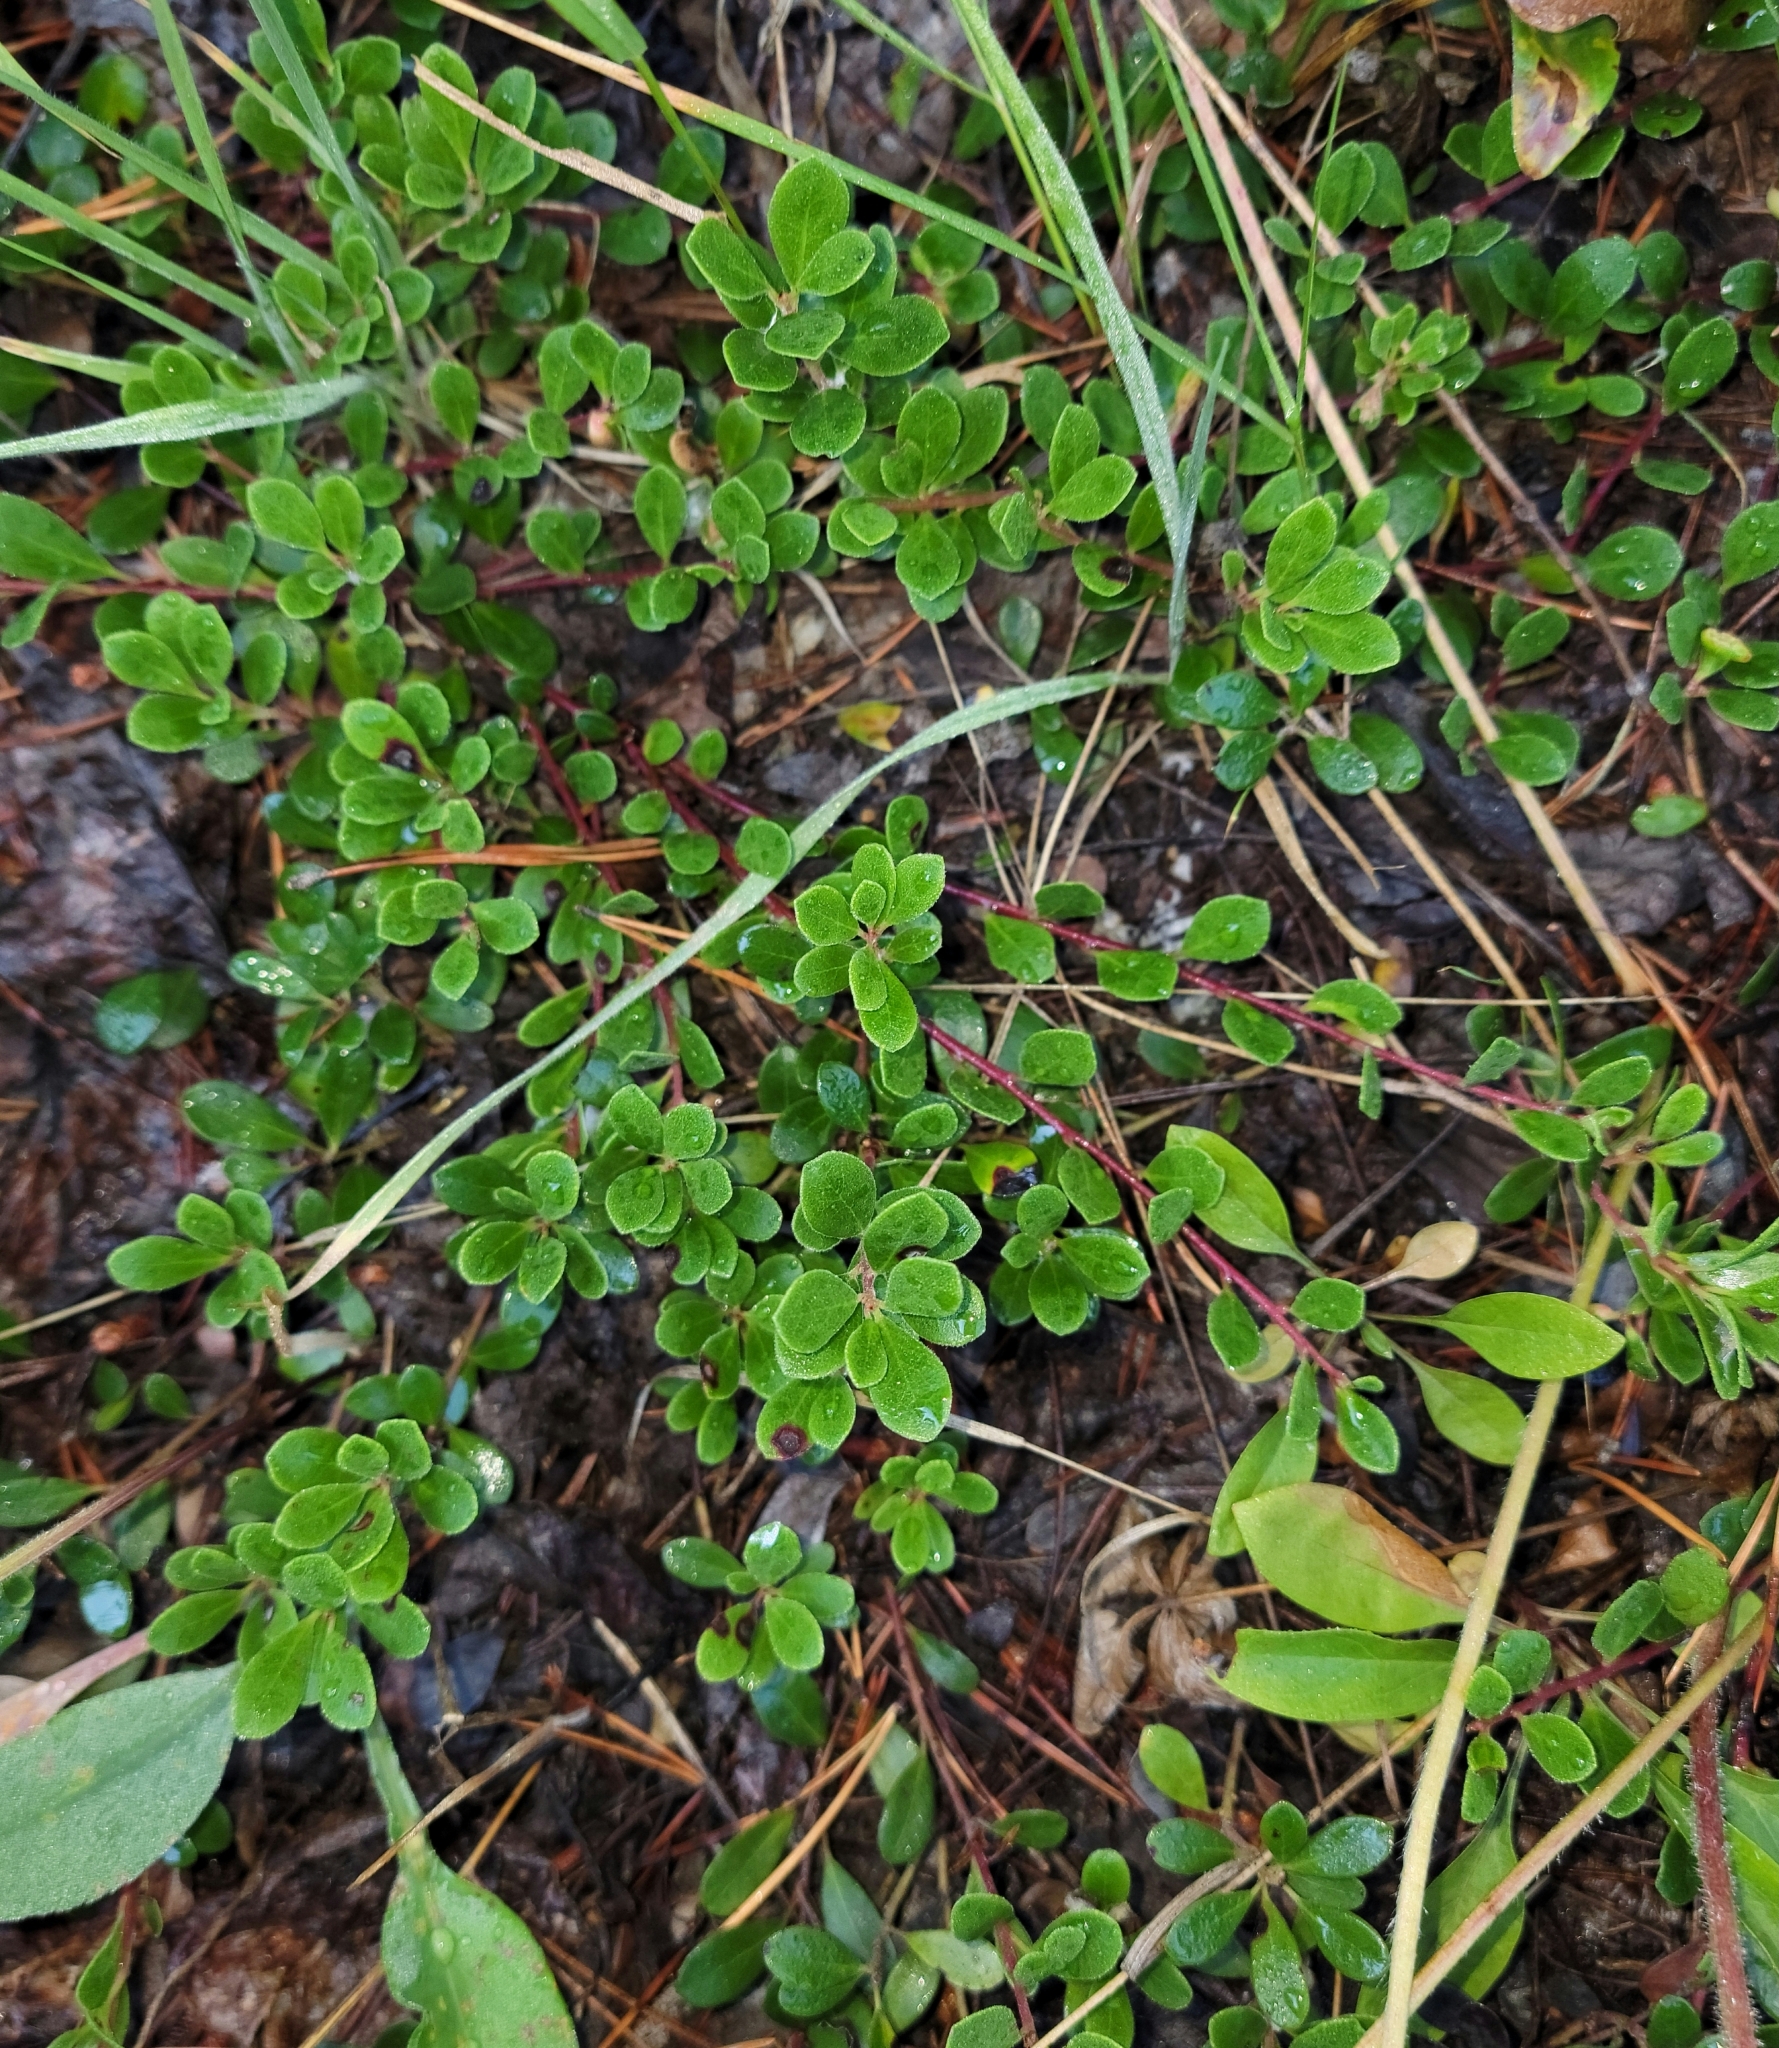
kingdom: Plantae
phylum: Tracheophyta
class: Magnoliopsida
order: Ericales
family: Ericaceae
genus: Arctostaphylos
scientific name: Arctostaphylos uva-ursi
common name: Bearberry
